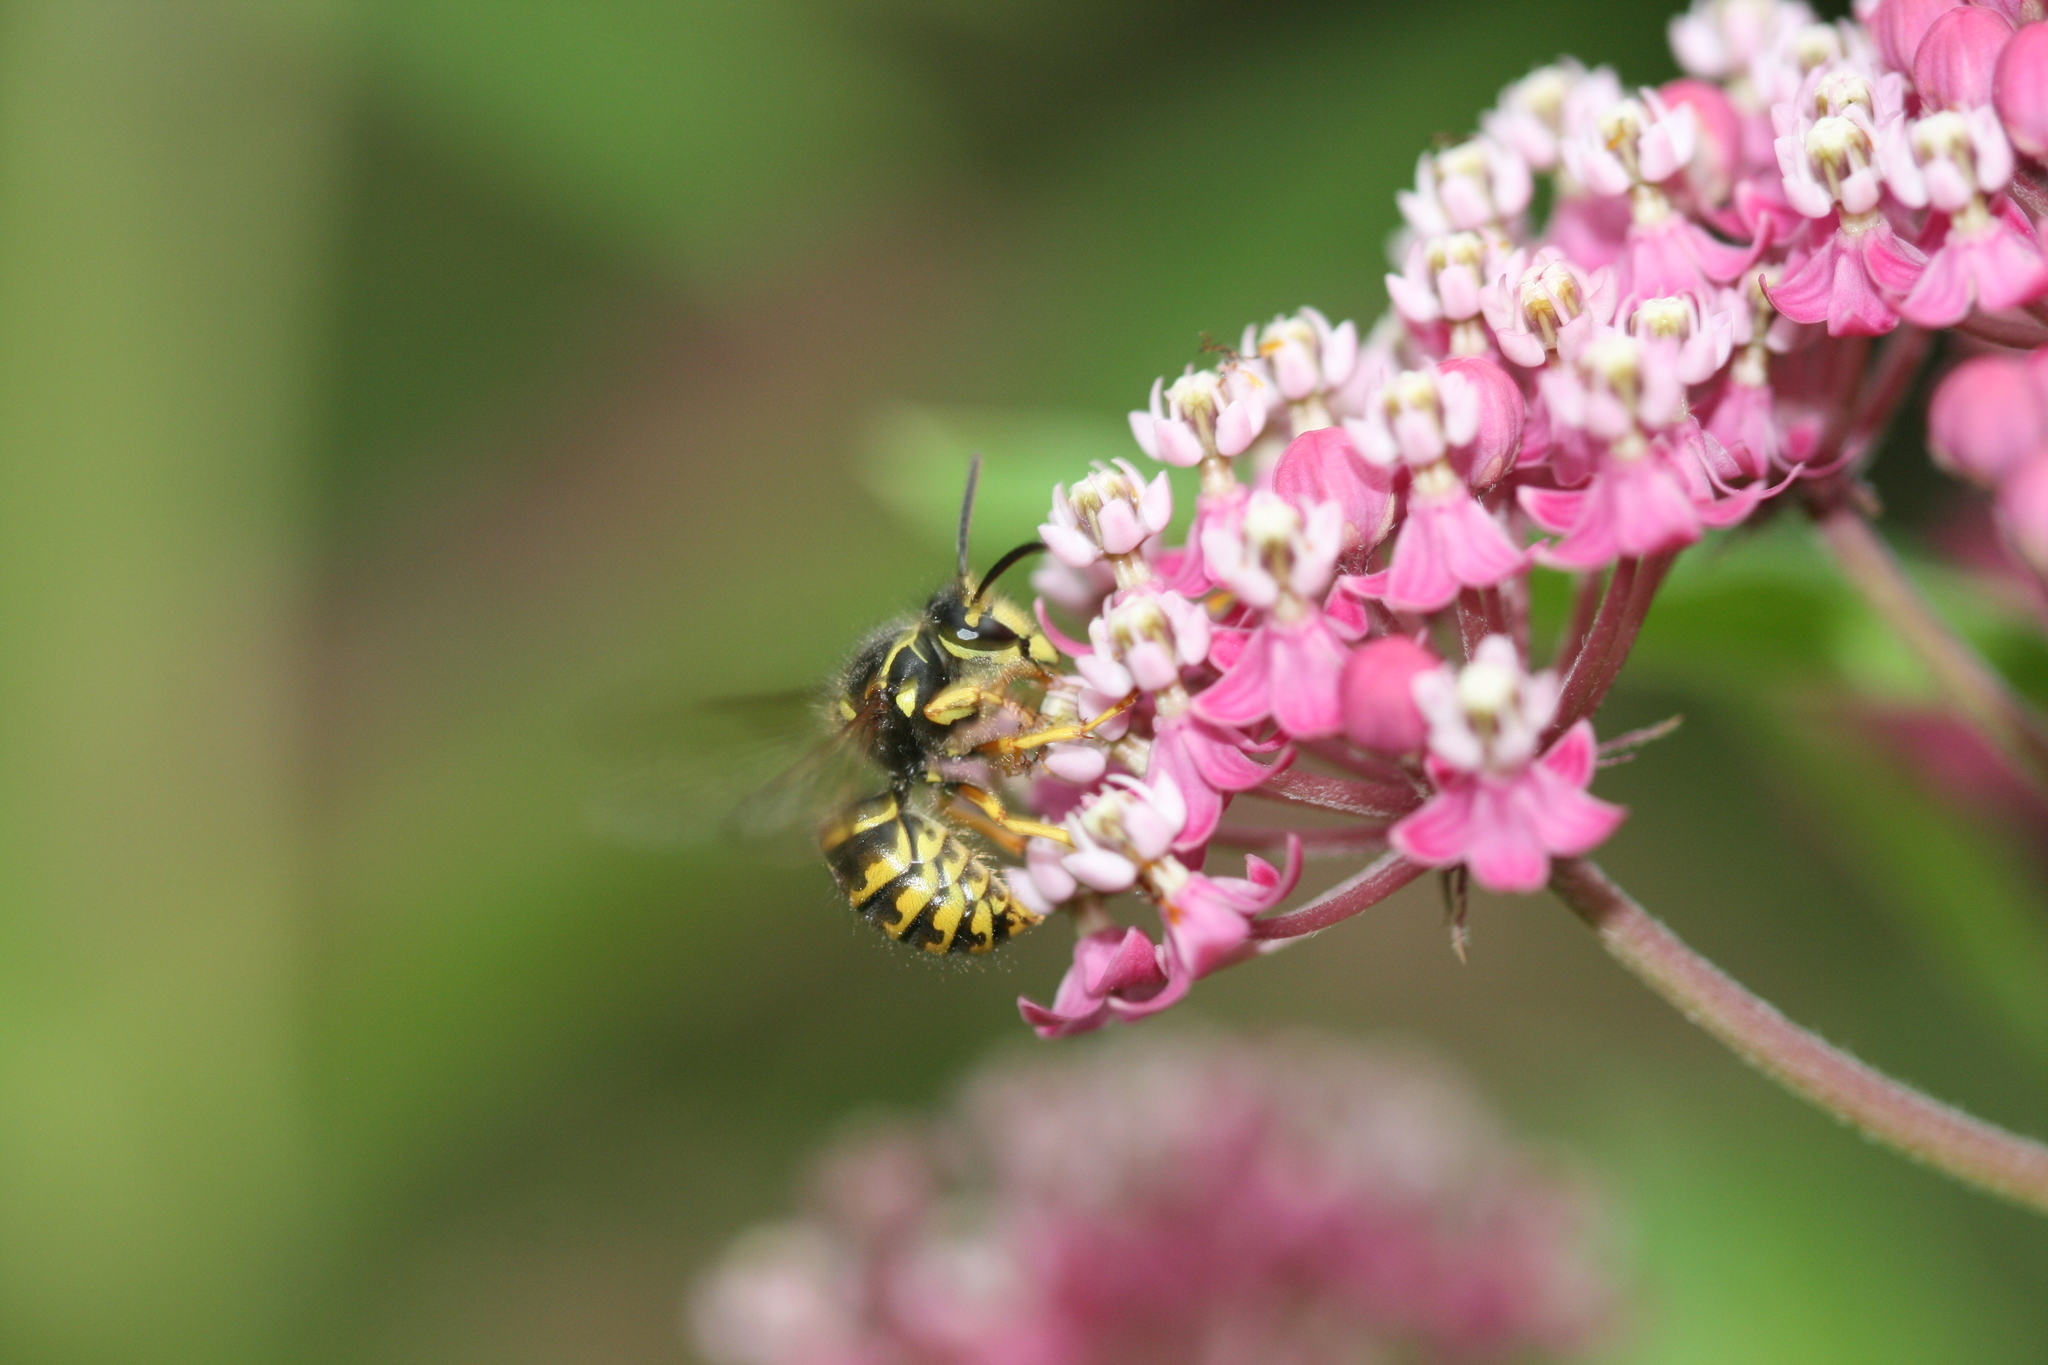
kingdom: Animalia
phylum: Arthropoda
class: Insecta
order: Hymenoptera
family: Vespidae
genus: Dolichovespula
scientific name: Dolichovespula arenaria
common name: Aerial yellowjacket
